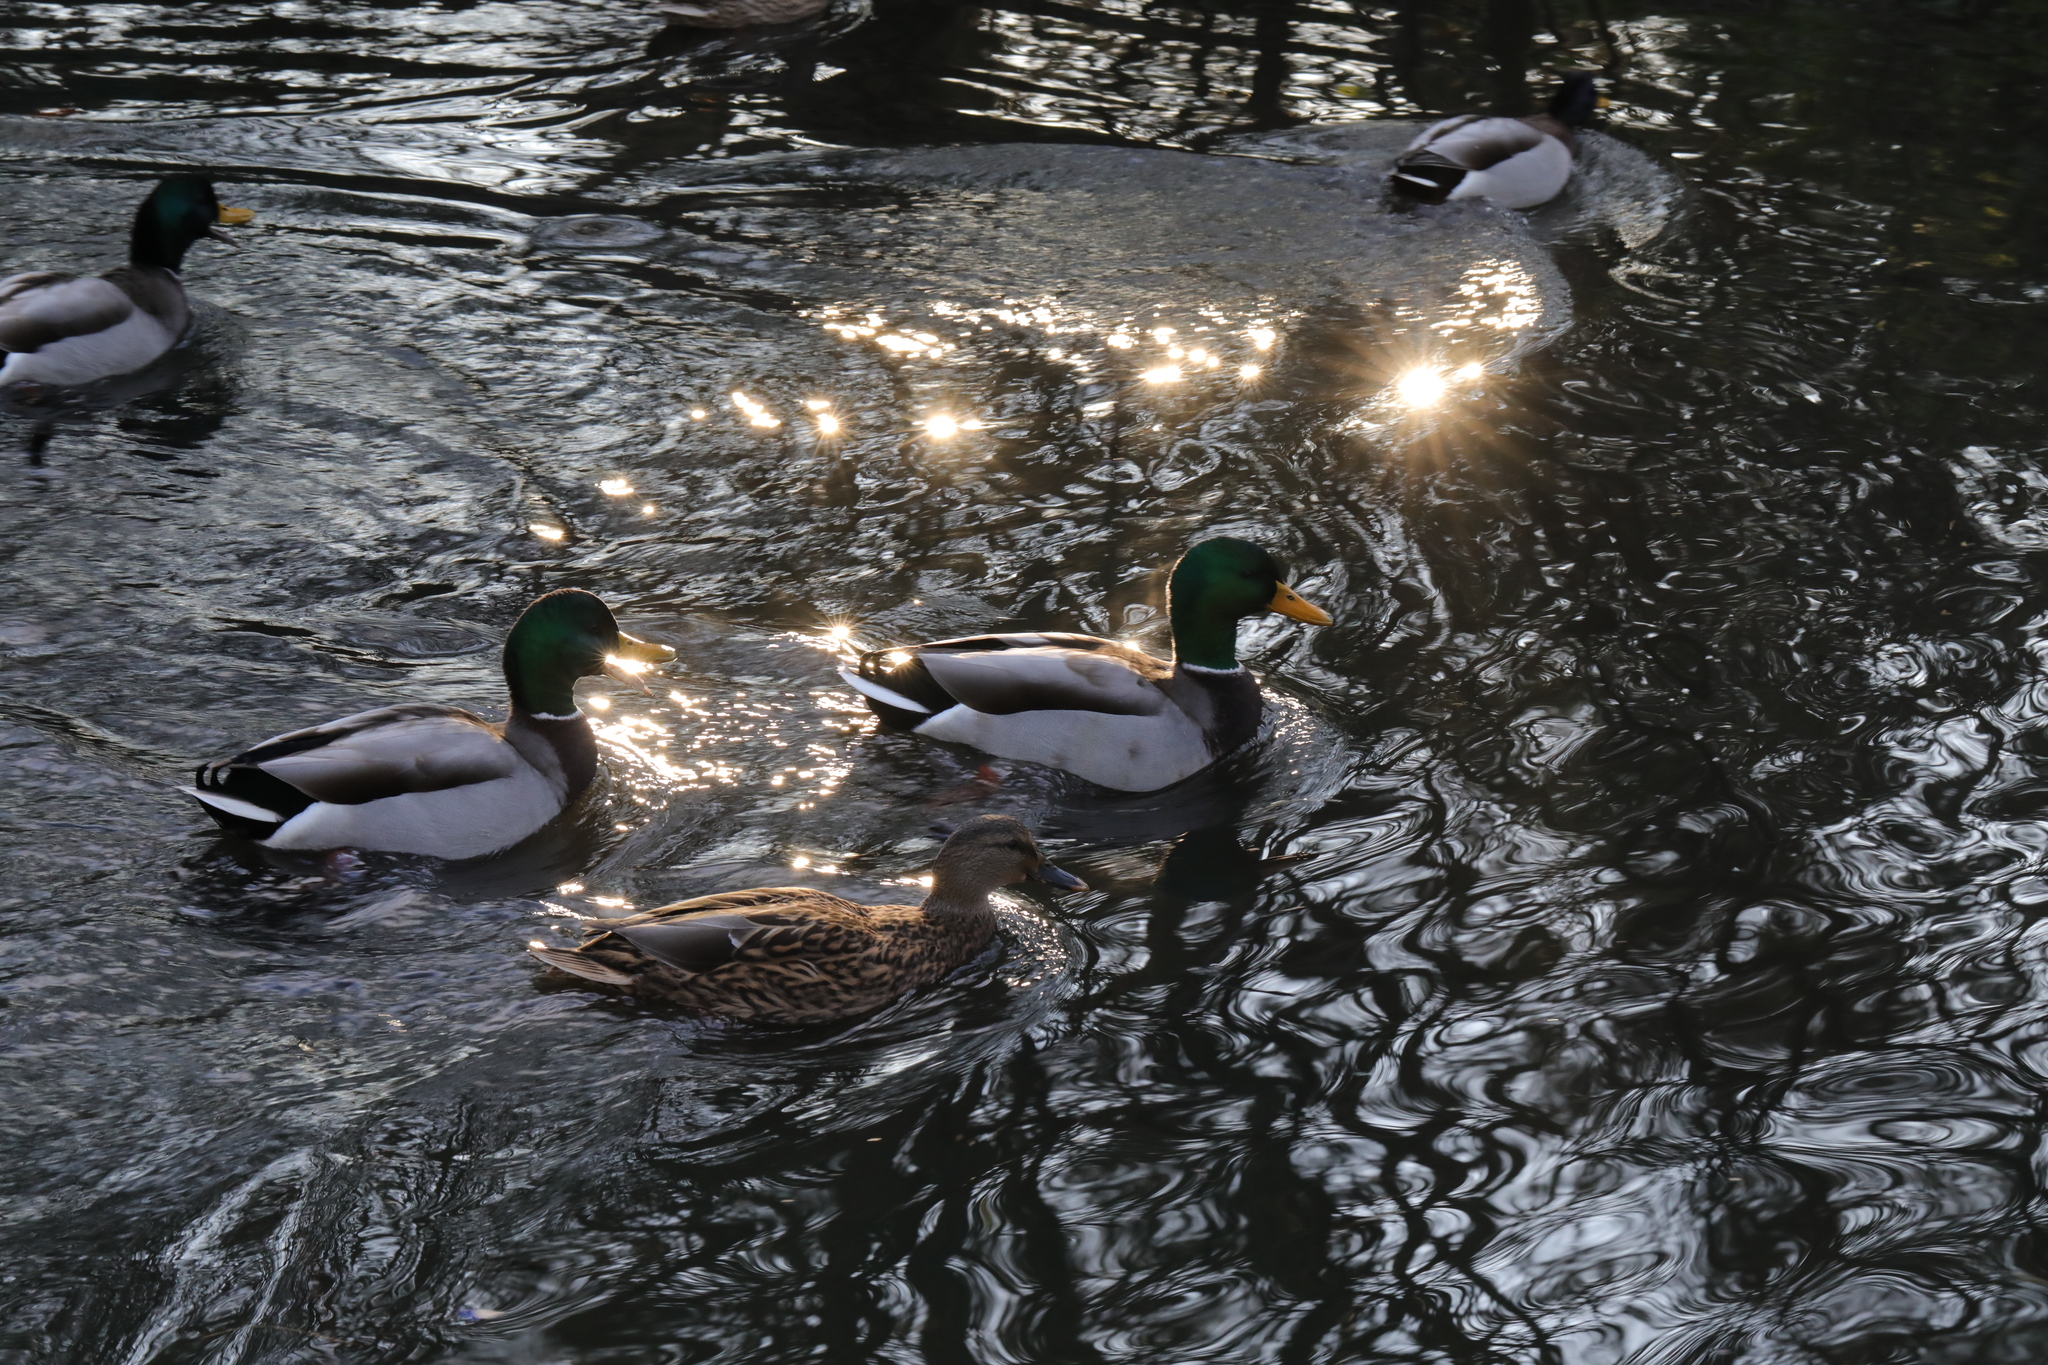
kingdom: Animalia
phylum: Chordata
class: Aves
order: Anseriformes
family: Anatidae
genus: Anas
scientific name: Anas platyrhynchos
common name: Mallard
